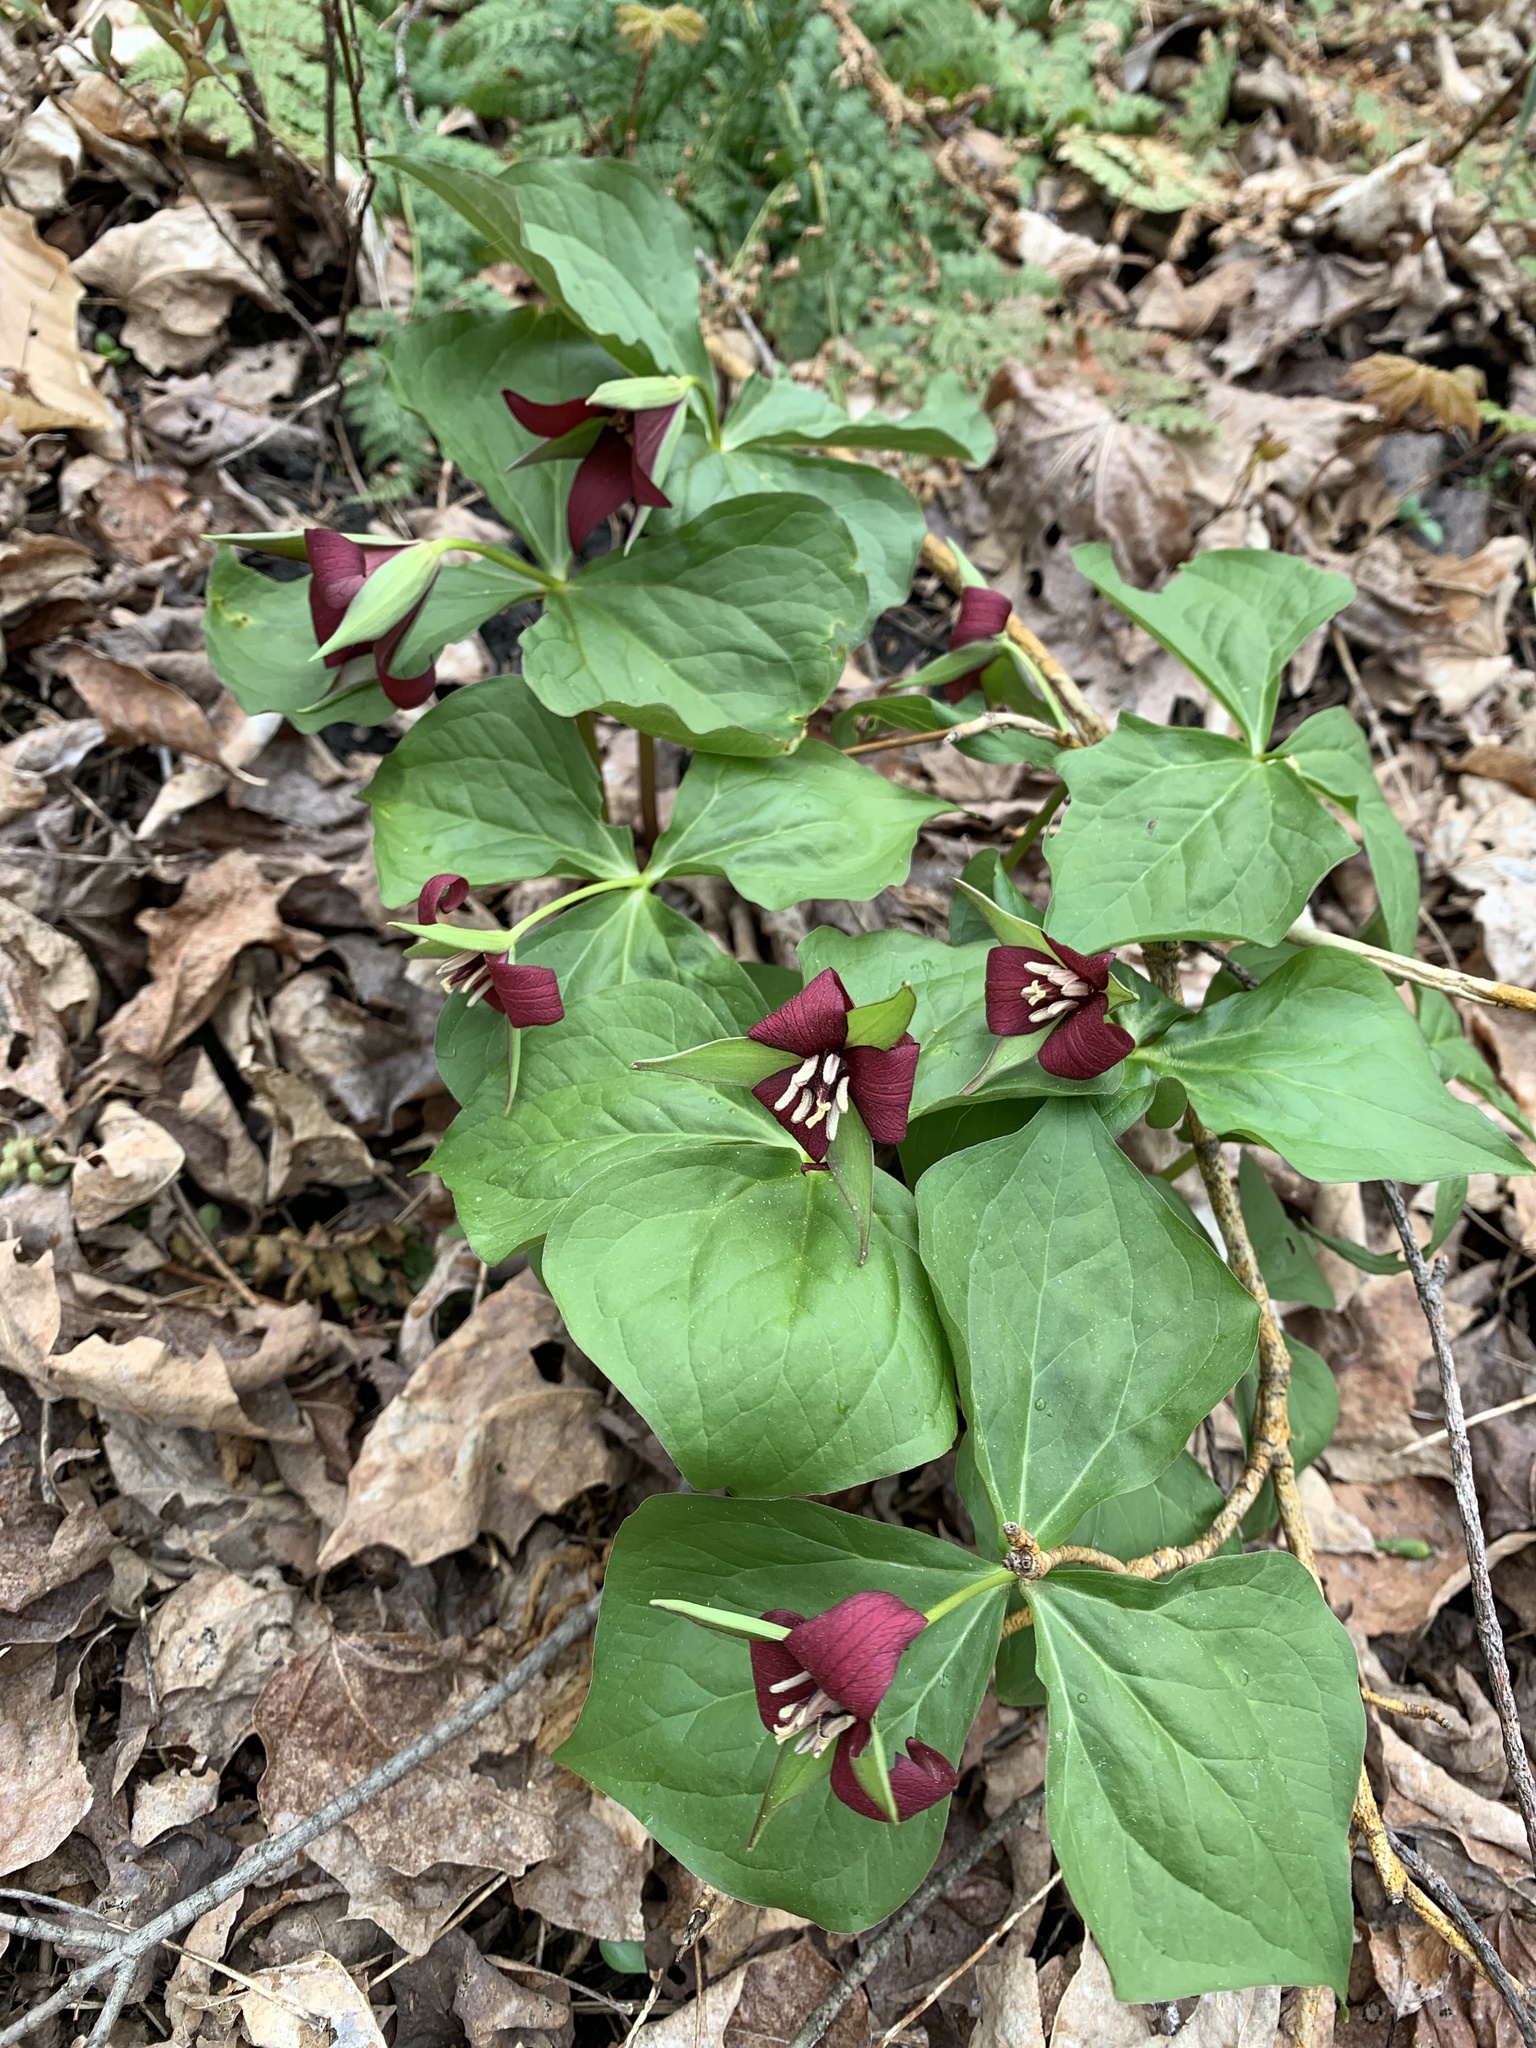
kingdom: Plantae
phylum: Tracheophyta
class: Liliopsida
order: Liliales
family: Melanthiaceae
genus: Trillium
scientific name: Trillium erectum
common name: Purple trillium
